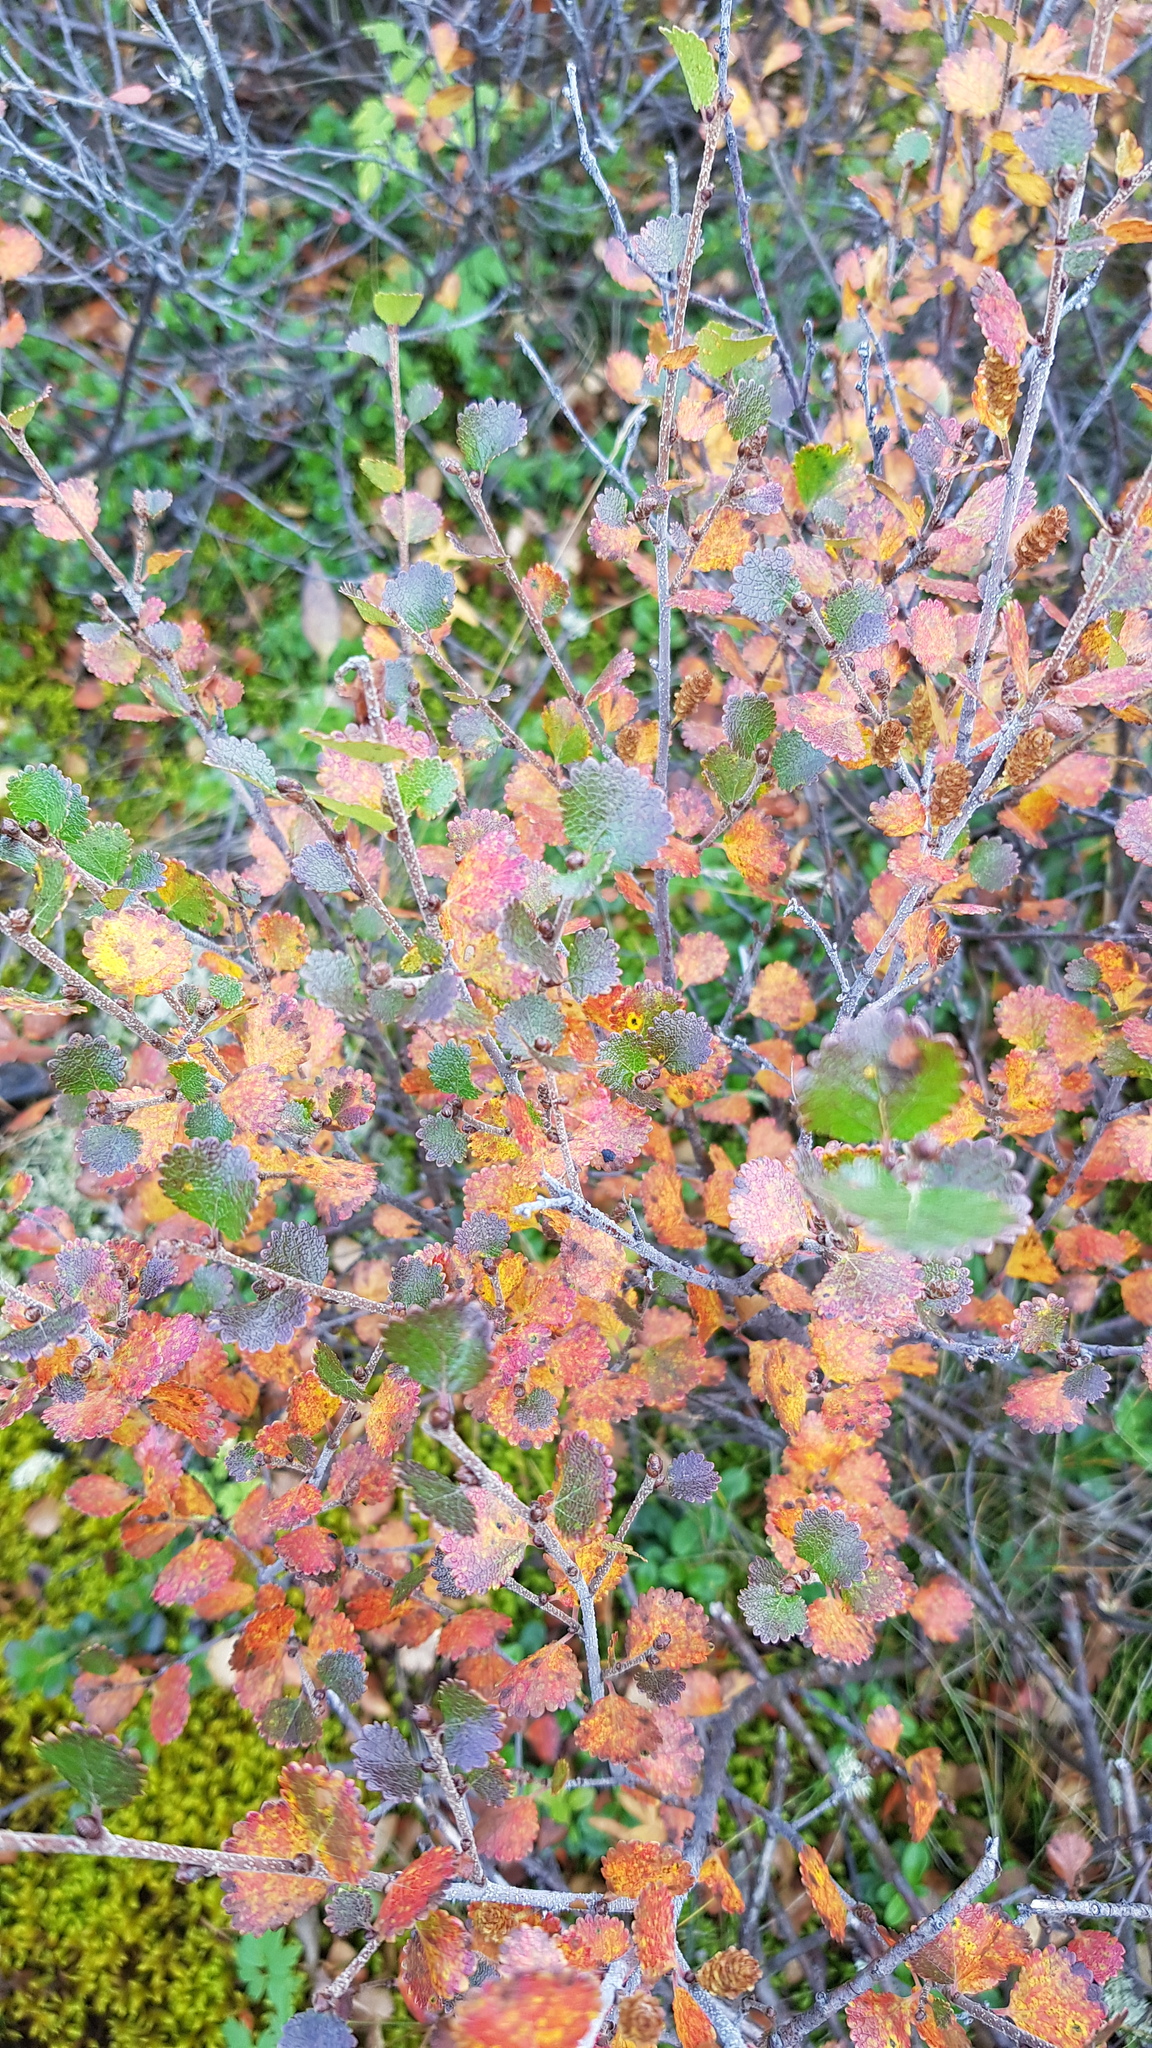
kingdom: Plantae
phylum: Tracheophyta
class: Magnoliopsida
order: Fagales
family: Betulaceae
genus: Betula
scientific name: Betula glandulosa
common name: Dwarf birch
